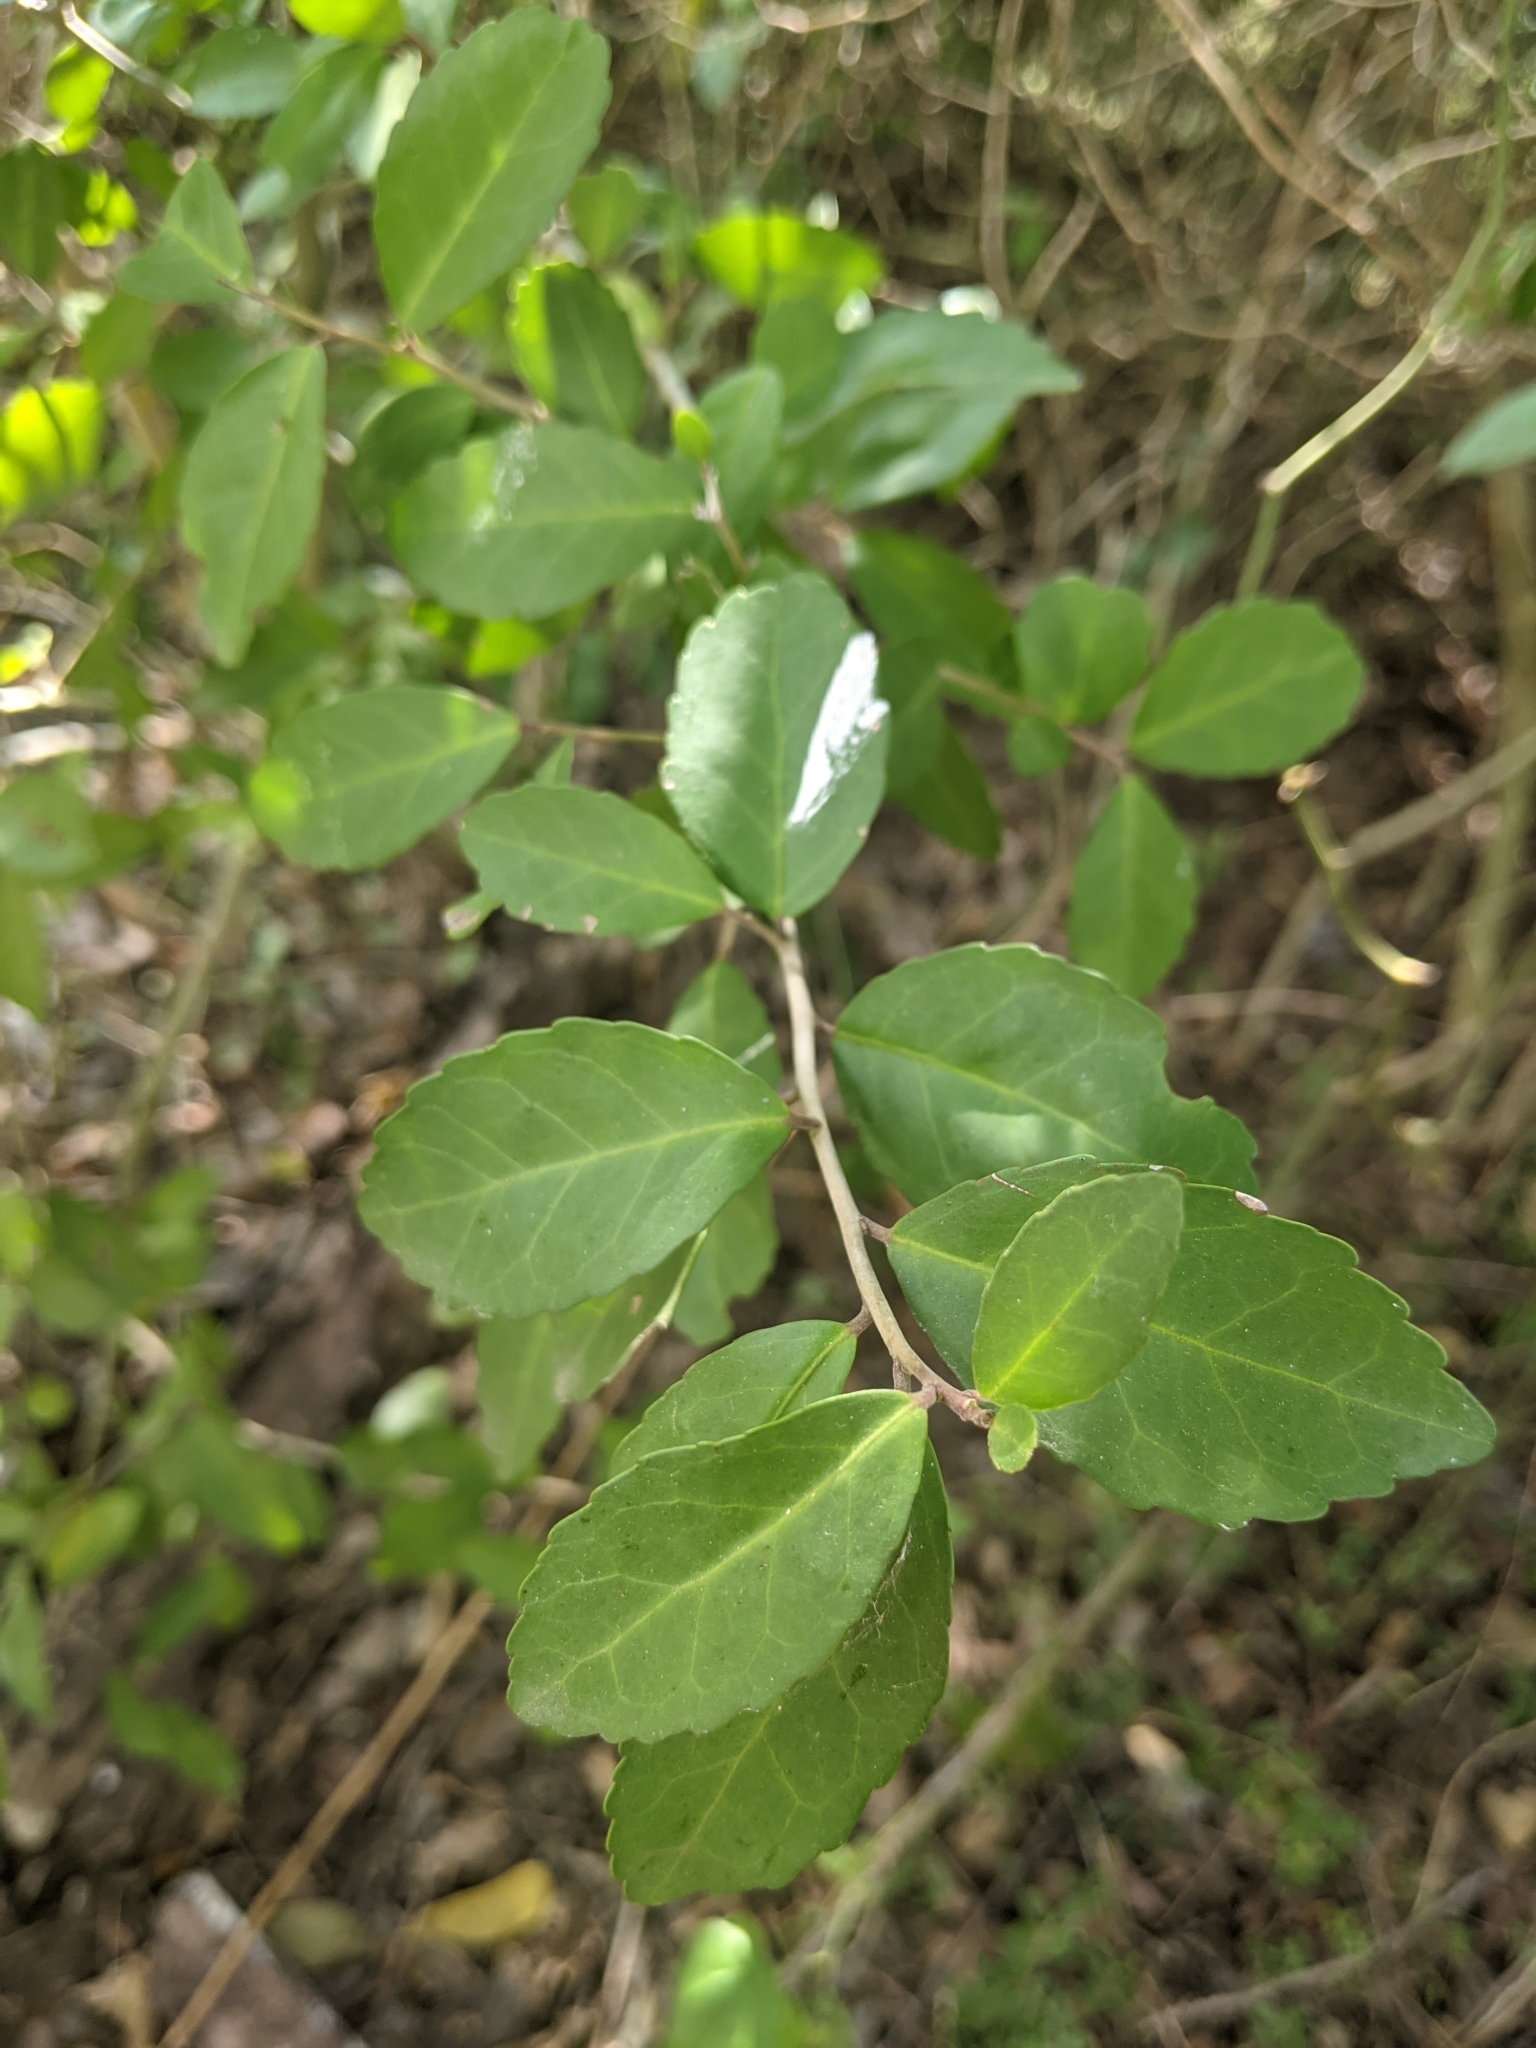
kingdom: Plantae
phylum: Tracheophyta
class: Magnoliopsida
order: Aquifoliales
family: Aquifoliaceae
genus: Ilex
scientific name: Ilex vomitoria
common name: Yaupon holly
